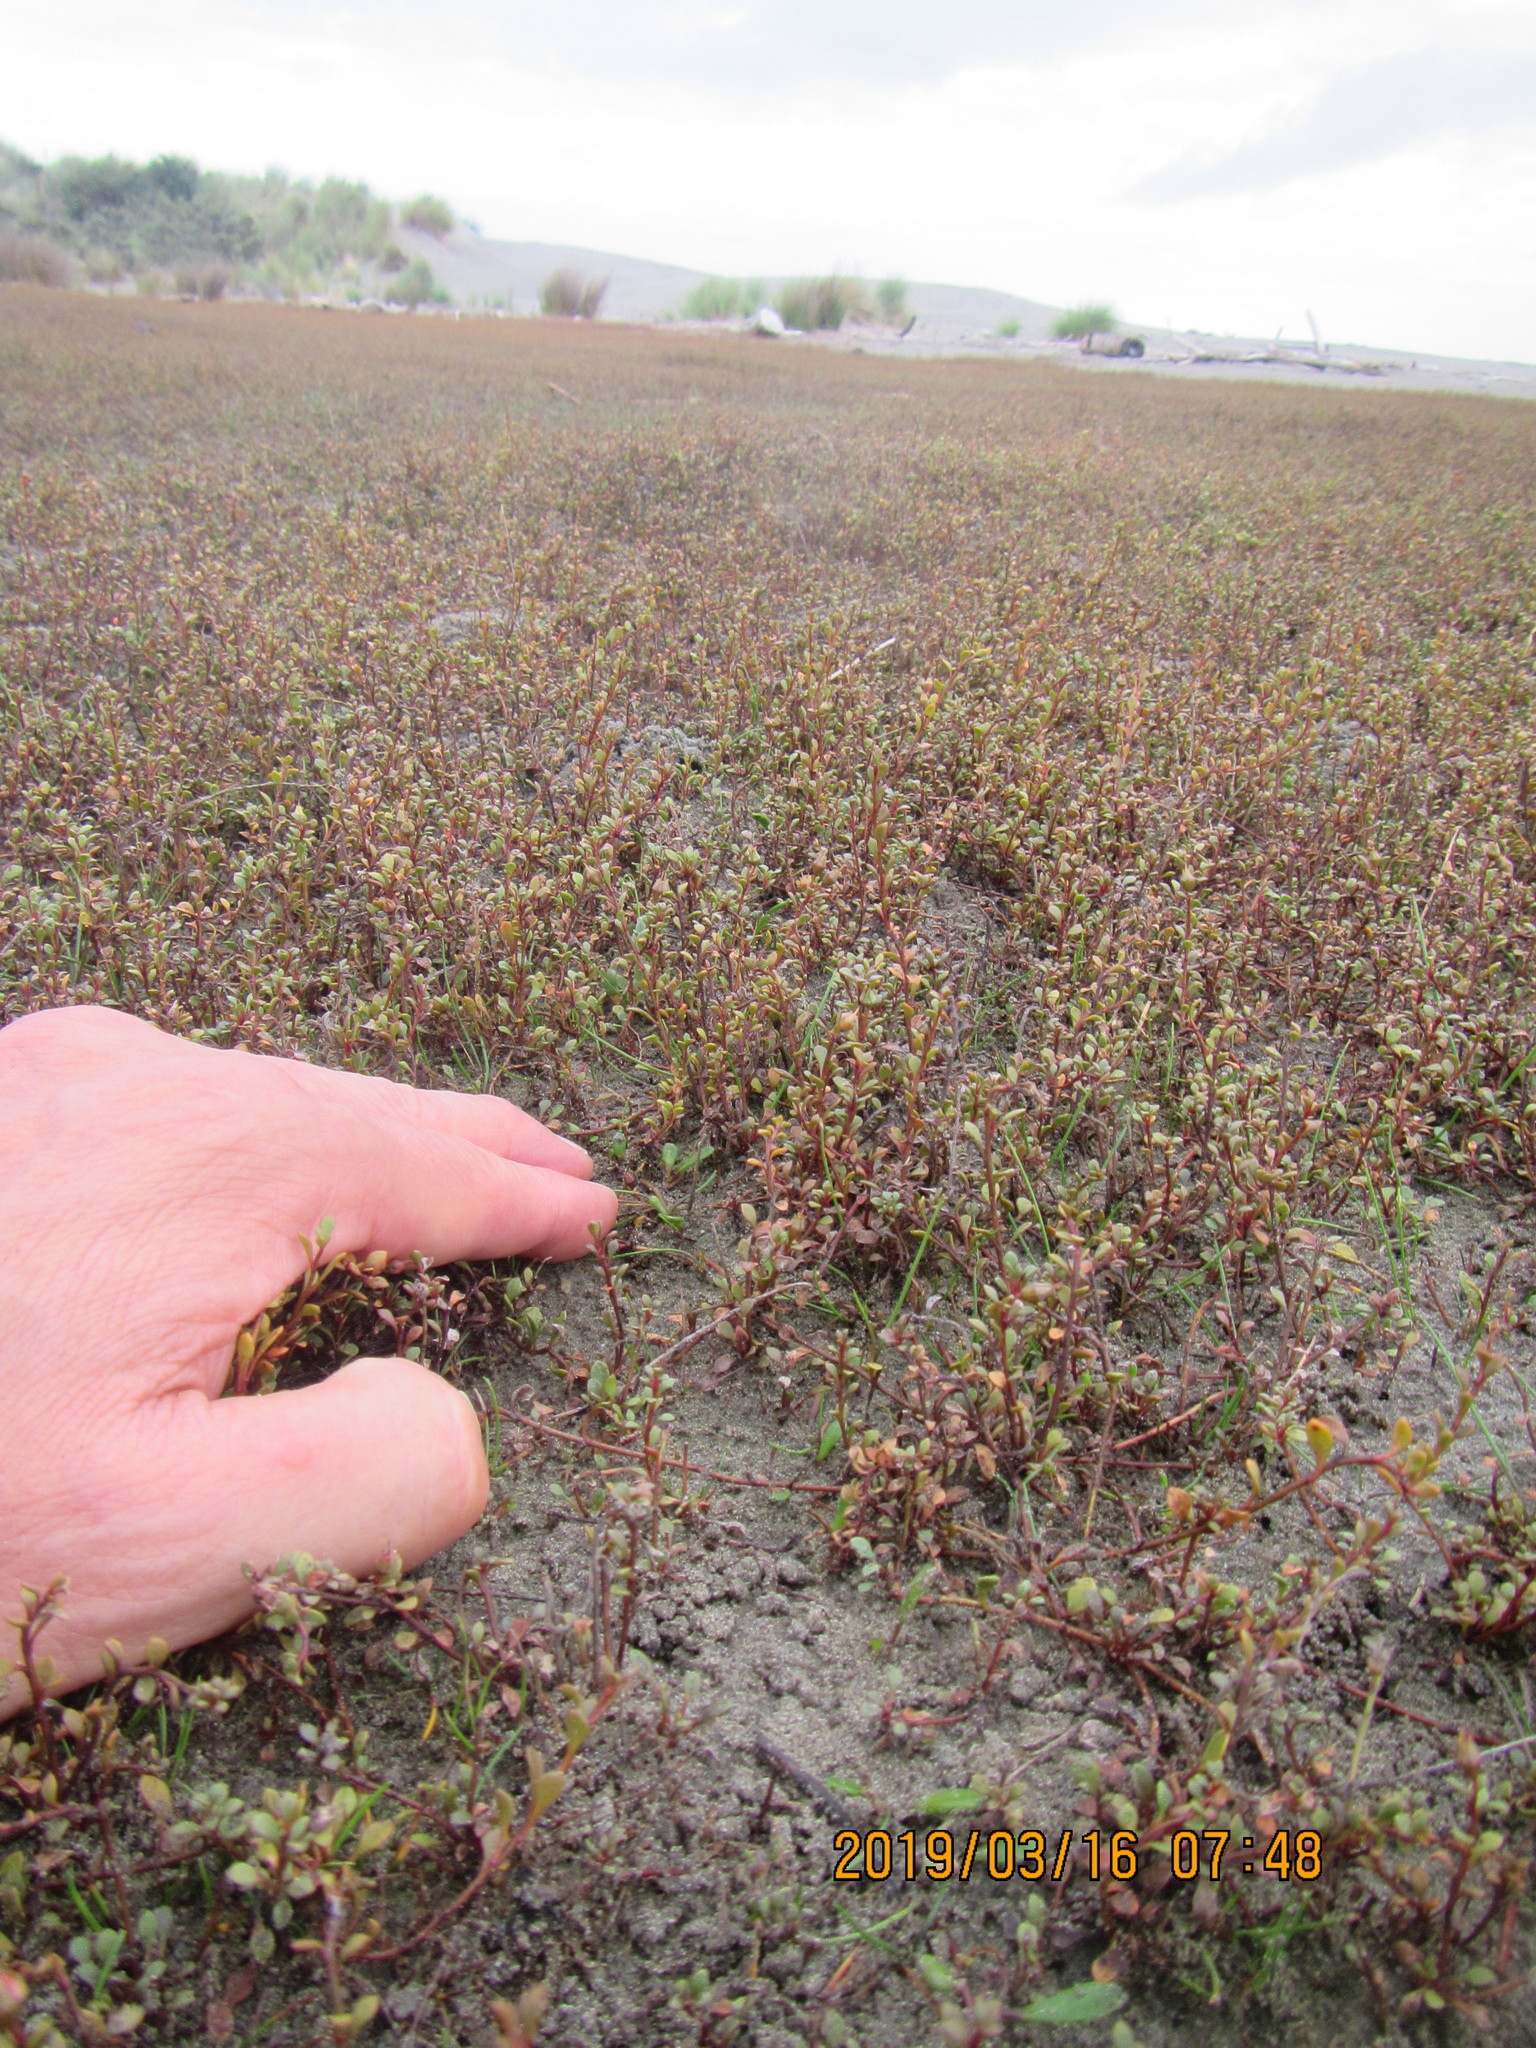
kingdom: Plantae
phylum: Tracheophyta
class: Magnoliopsida
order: Asterales
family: Goodeniaceae
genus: Goodenia
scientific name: Goodenia radicans
